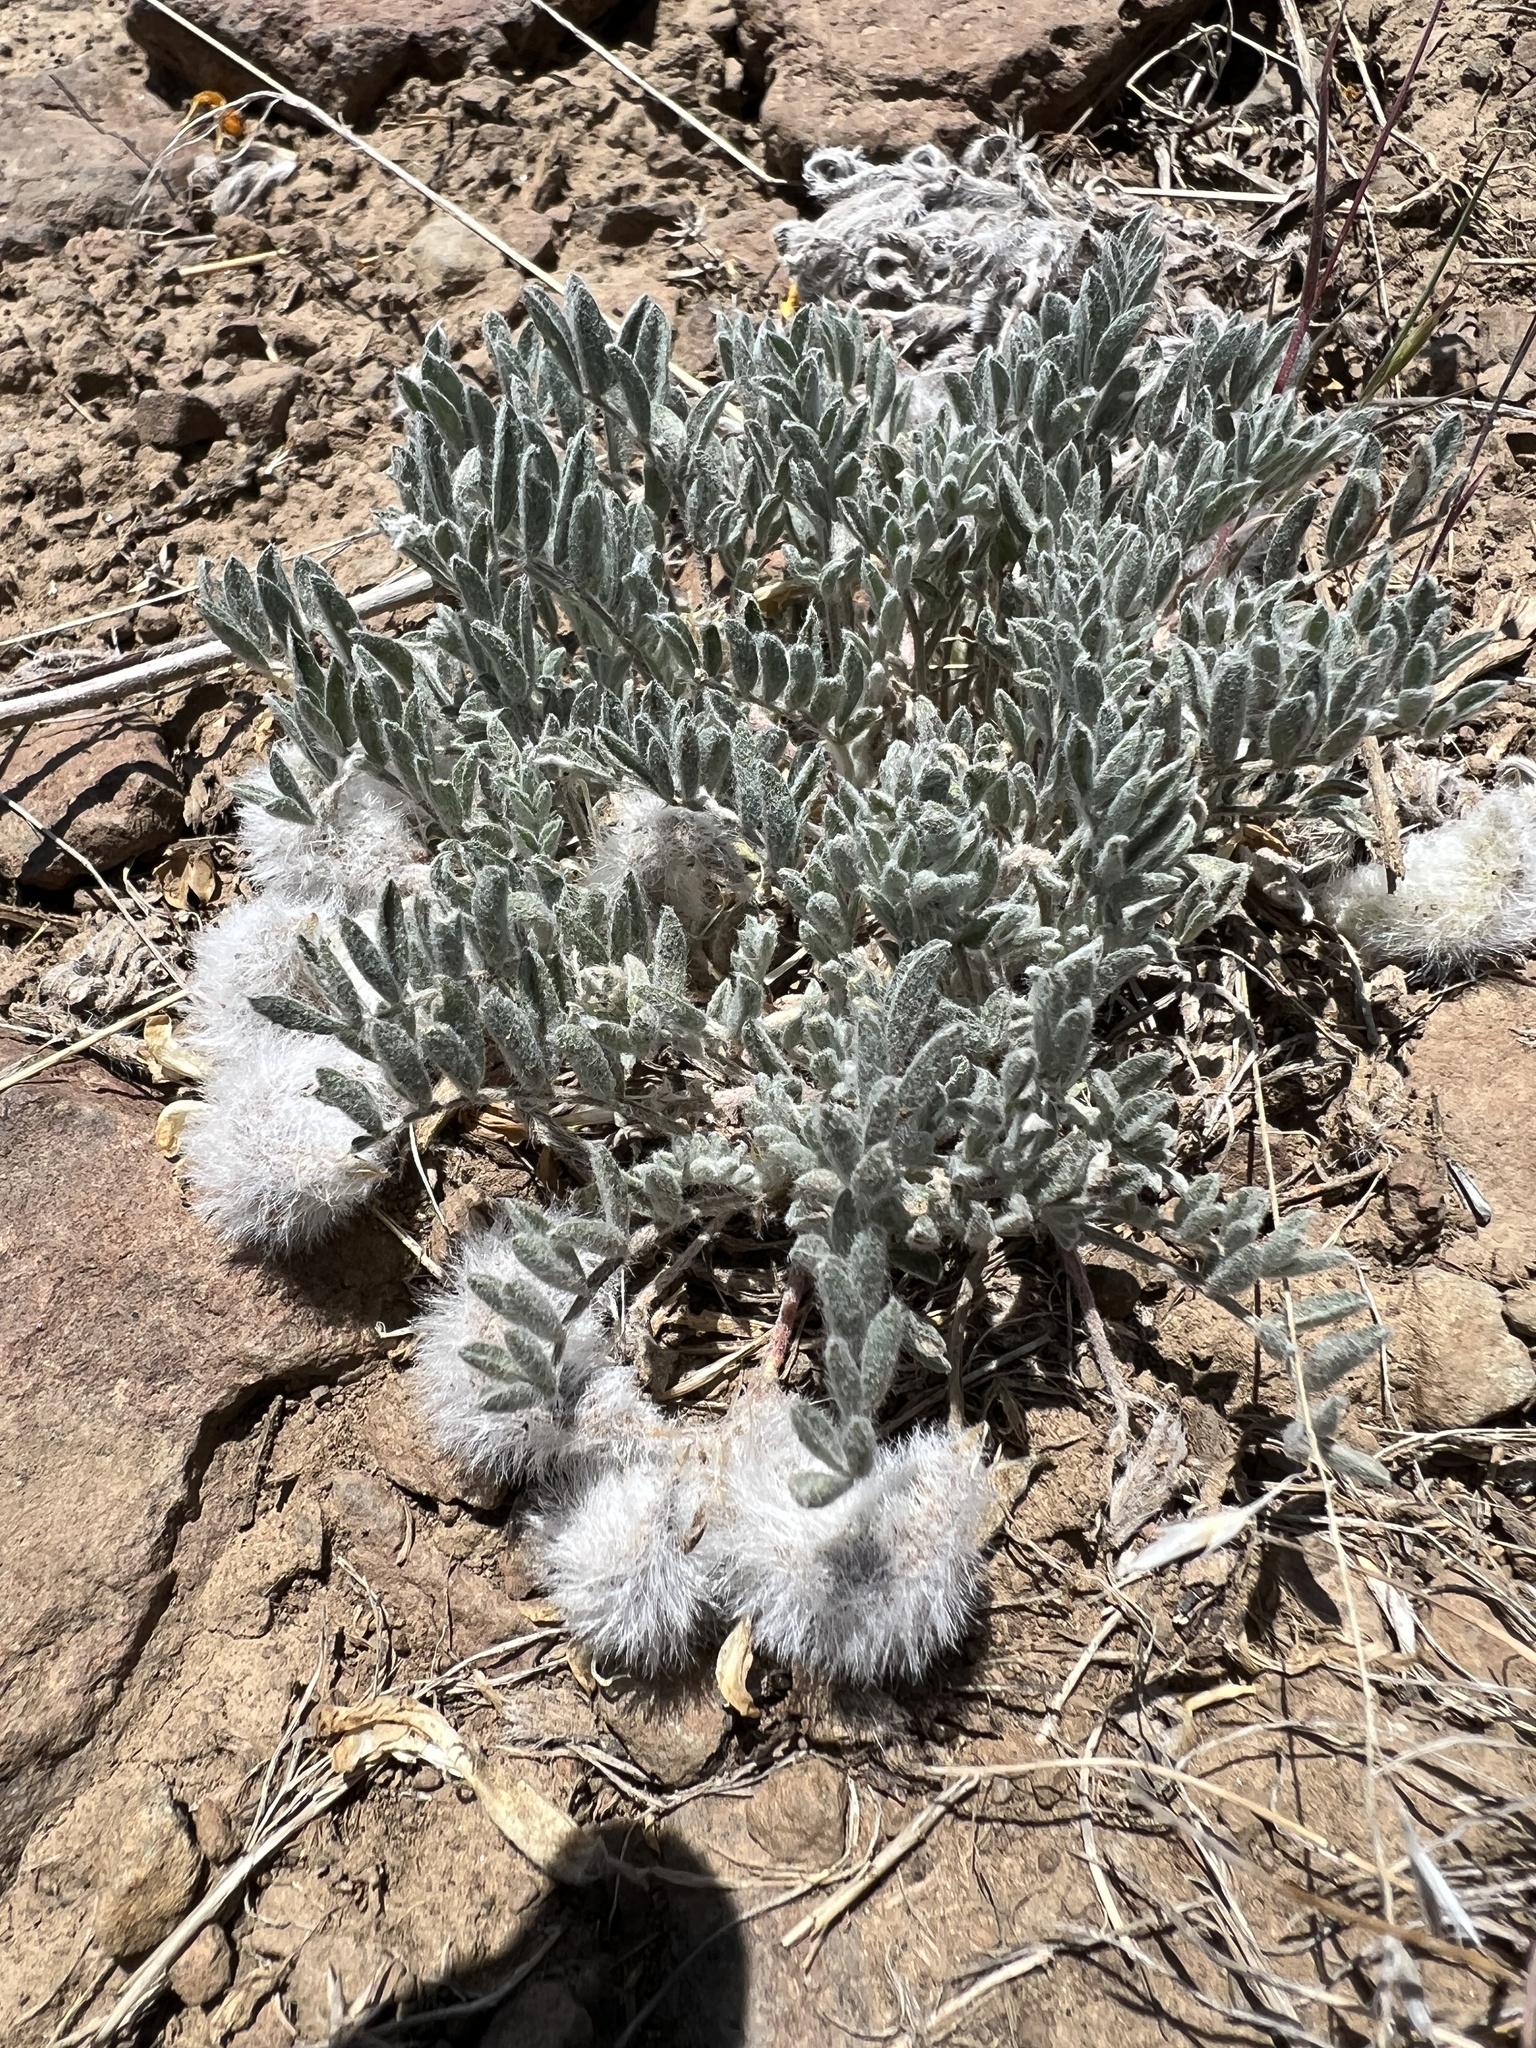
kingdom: Plantae
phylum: Tracheophyta
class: Magnoliopsida
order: Fabales
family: Fabaceae
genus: Astragalus
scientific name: Astragalus purshii
